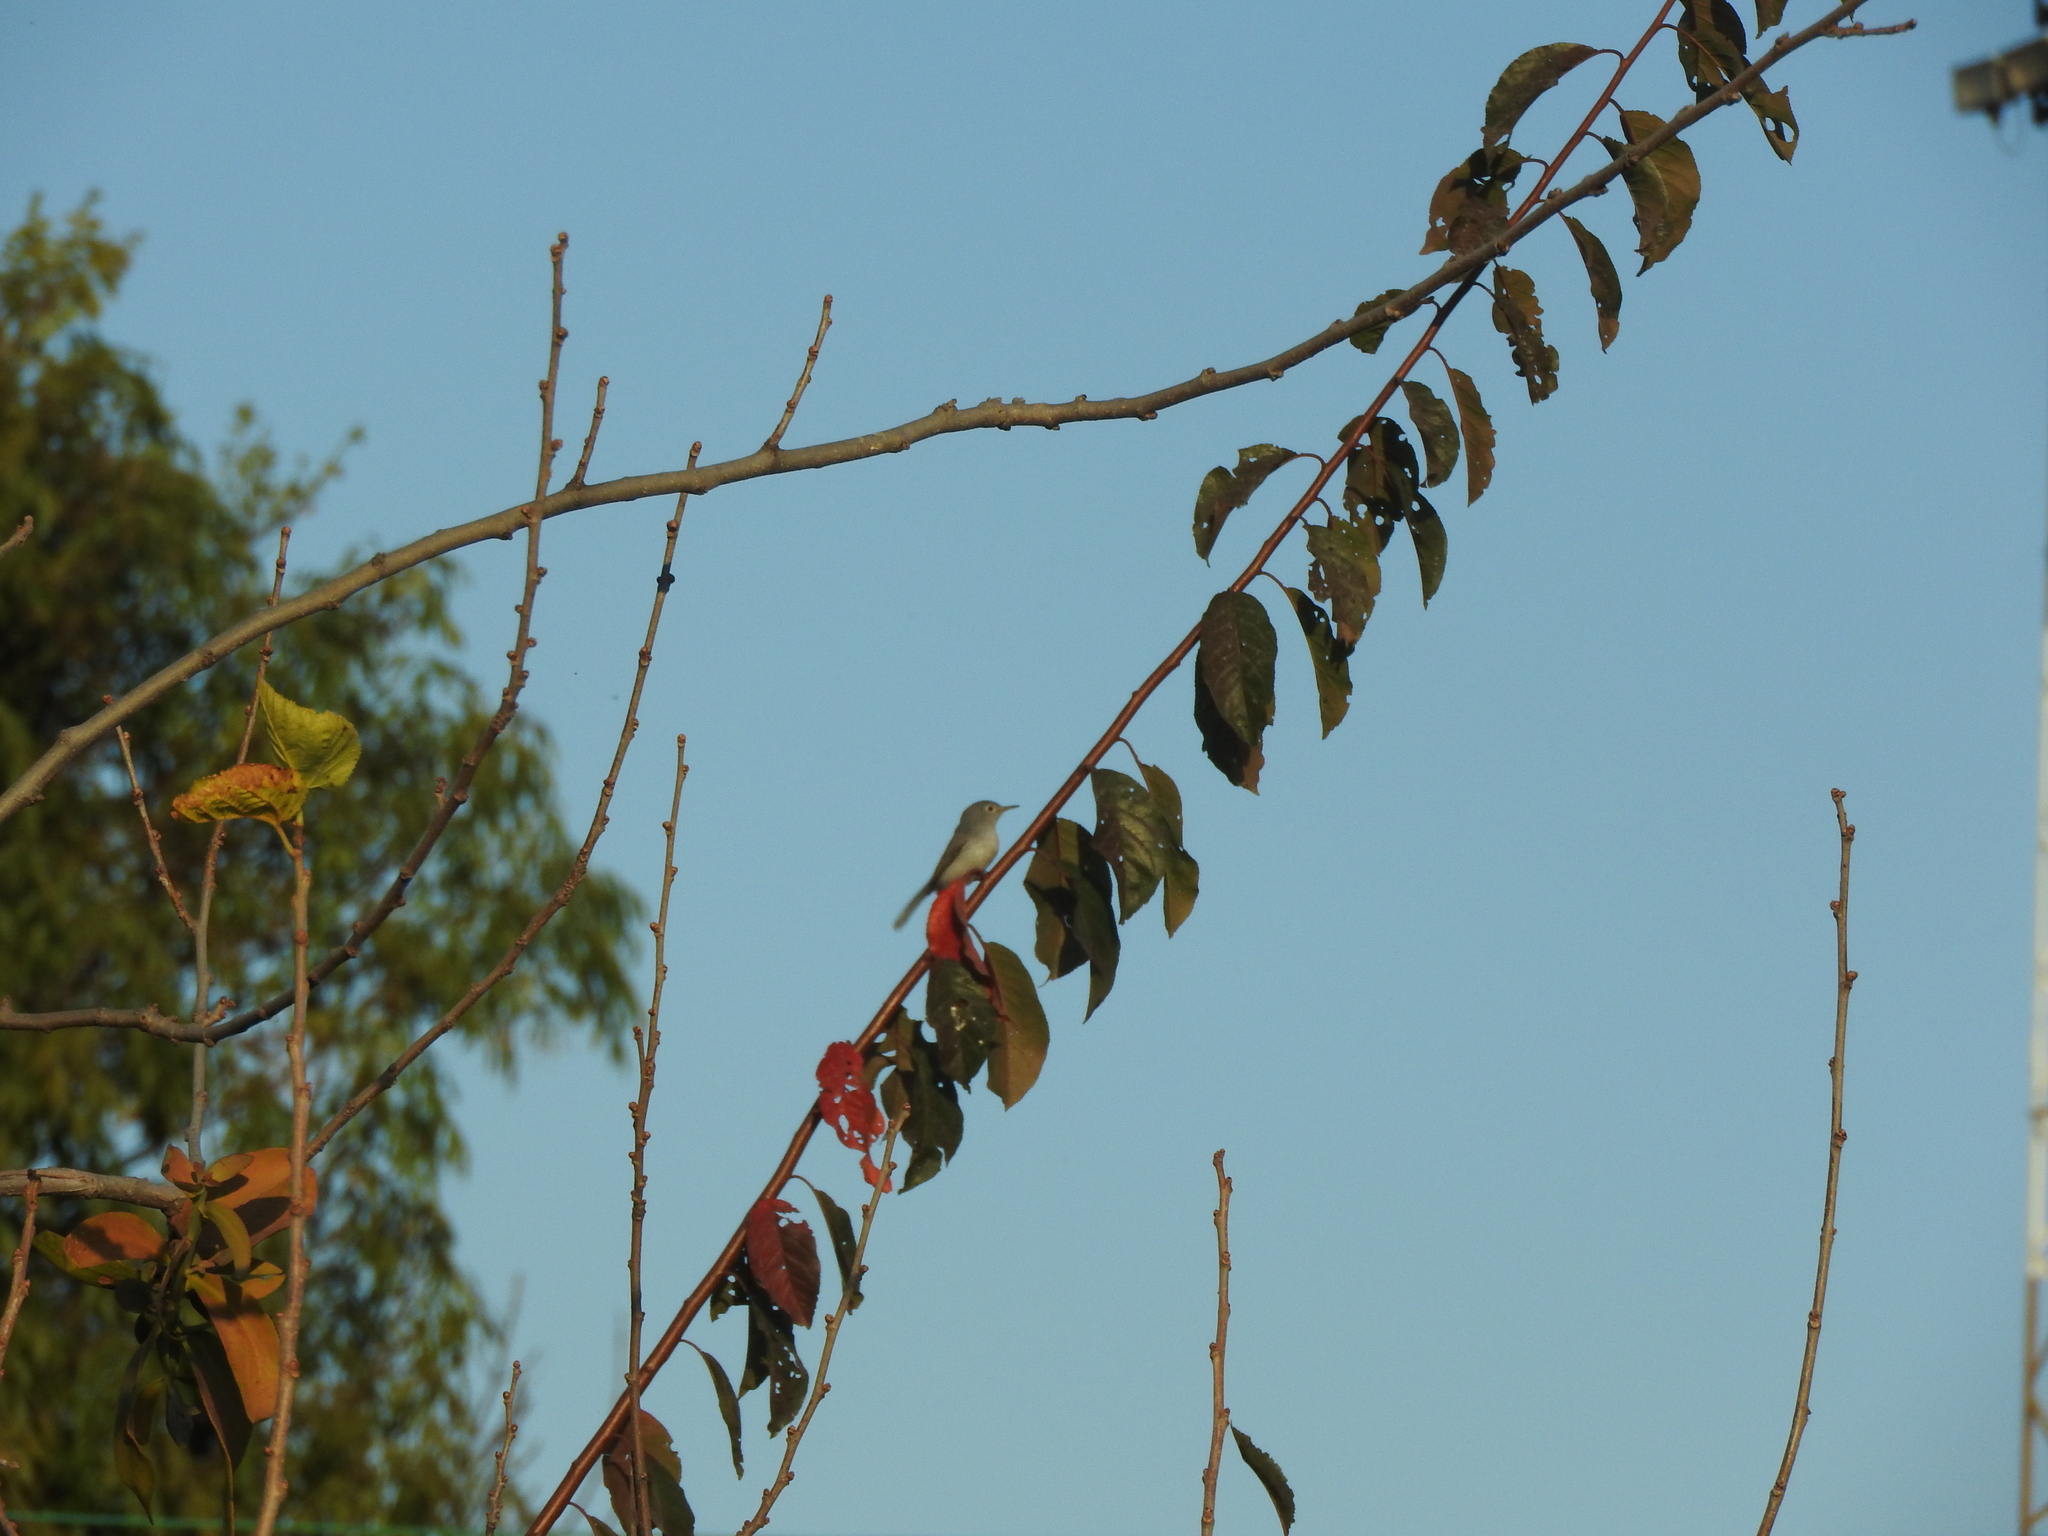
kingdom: Animalia
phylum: Chordata
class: Aves
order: Passeriformes
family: Polioptilidae
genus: Polioptila
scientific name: Polioptila caerulea
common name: Blue-gray gnatcatcher
